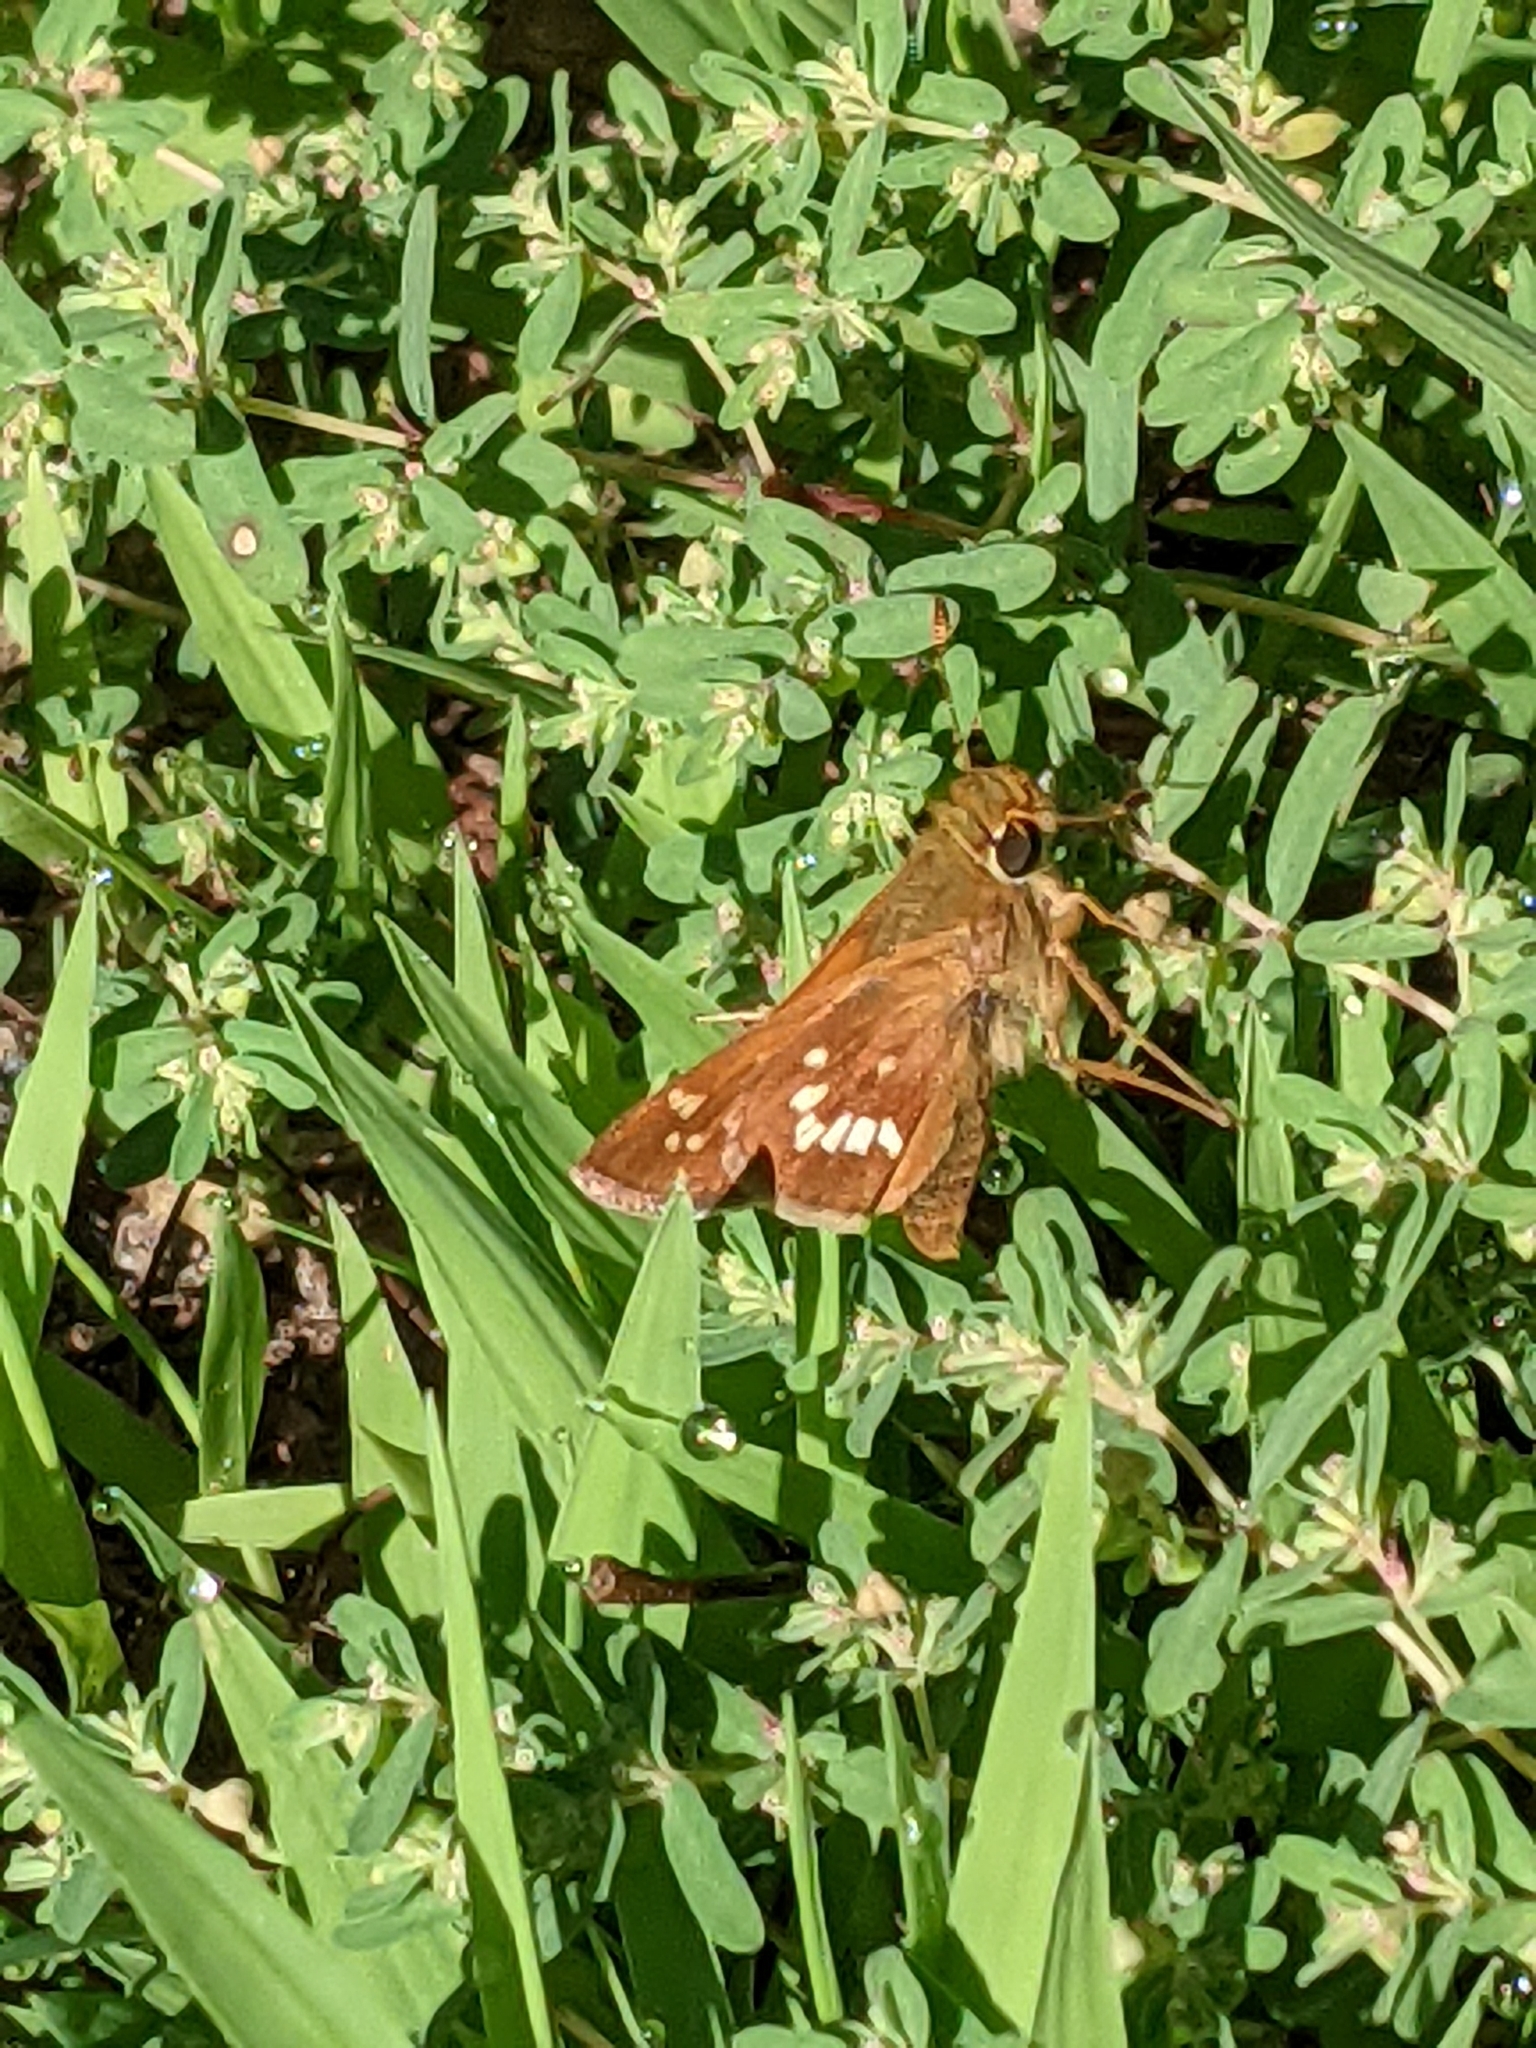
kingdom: Animalia
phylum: Arthropoda
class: Insecta
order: Lepidoptera
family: Hesperiidae
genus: Hesperia
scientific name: Hesperia leonardus
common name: Leonard's skipper
